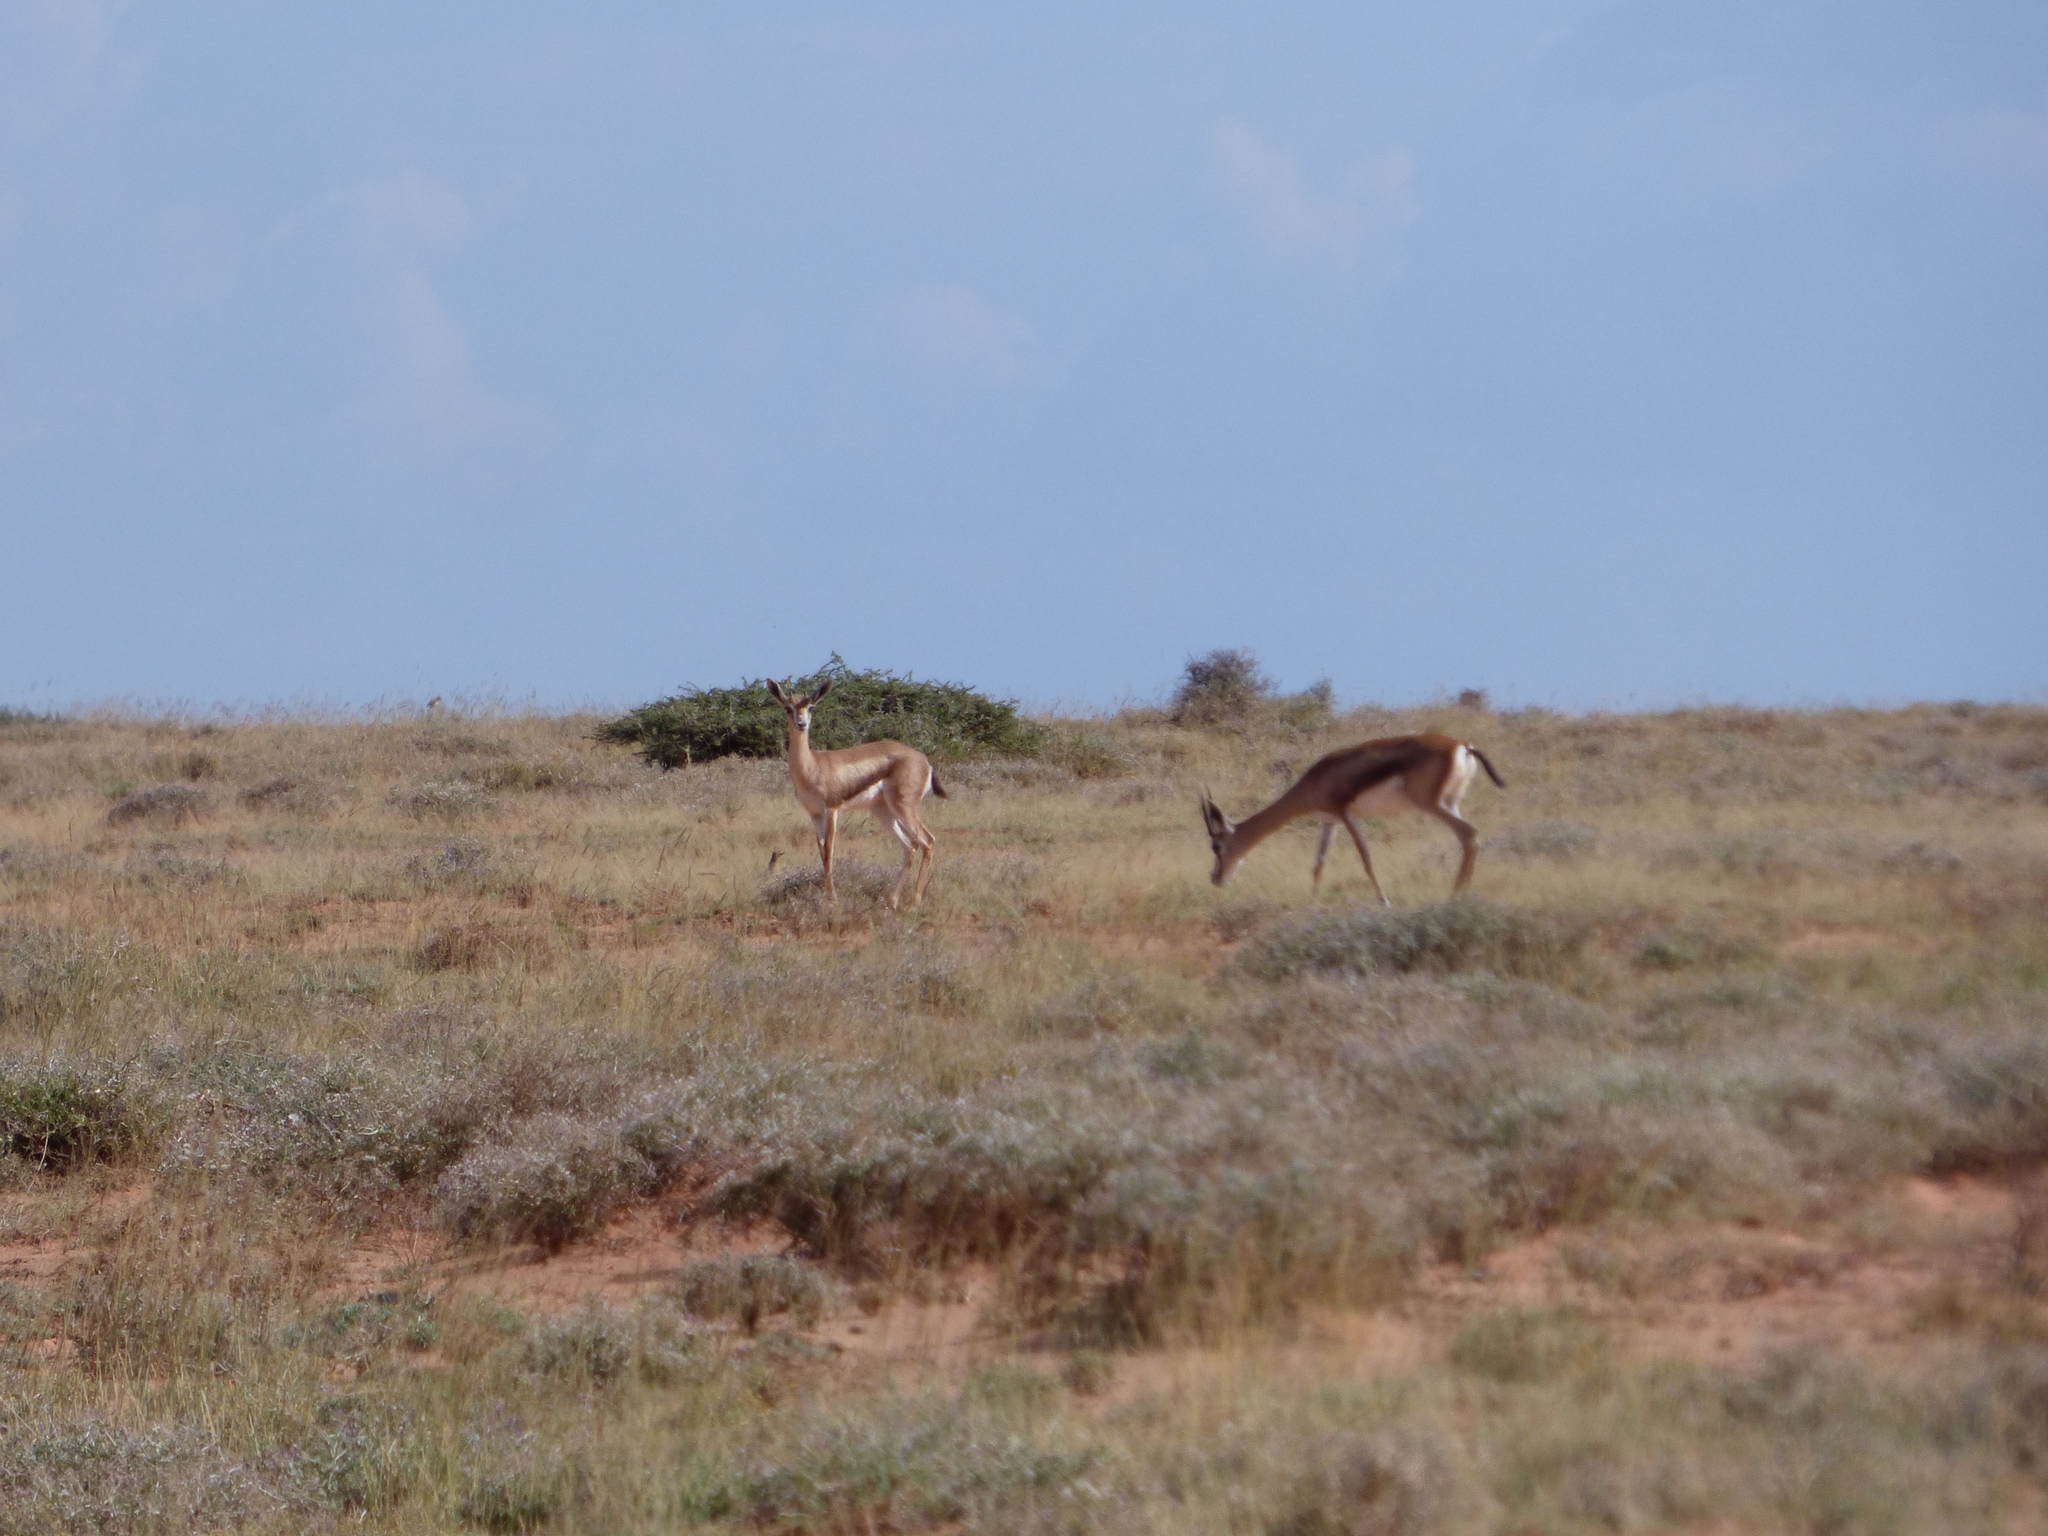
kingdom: Animalia
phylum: Chordata
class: Mammalia
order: Artiodactyla
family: Bovidae
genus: Gazella
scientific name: Gazella spekei
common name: Speke's gazelle
